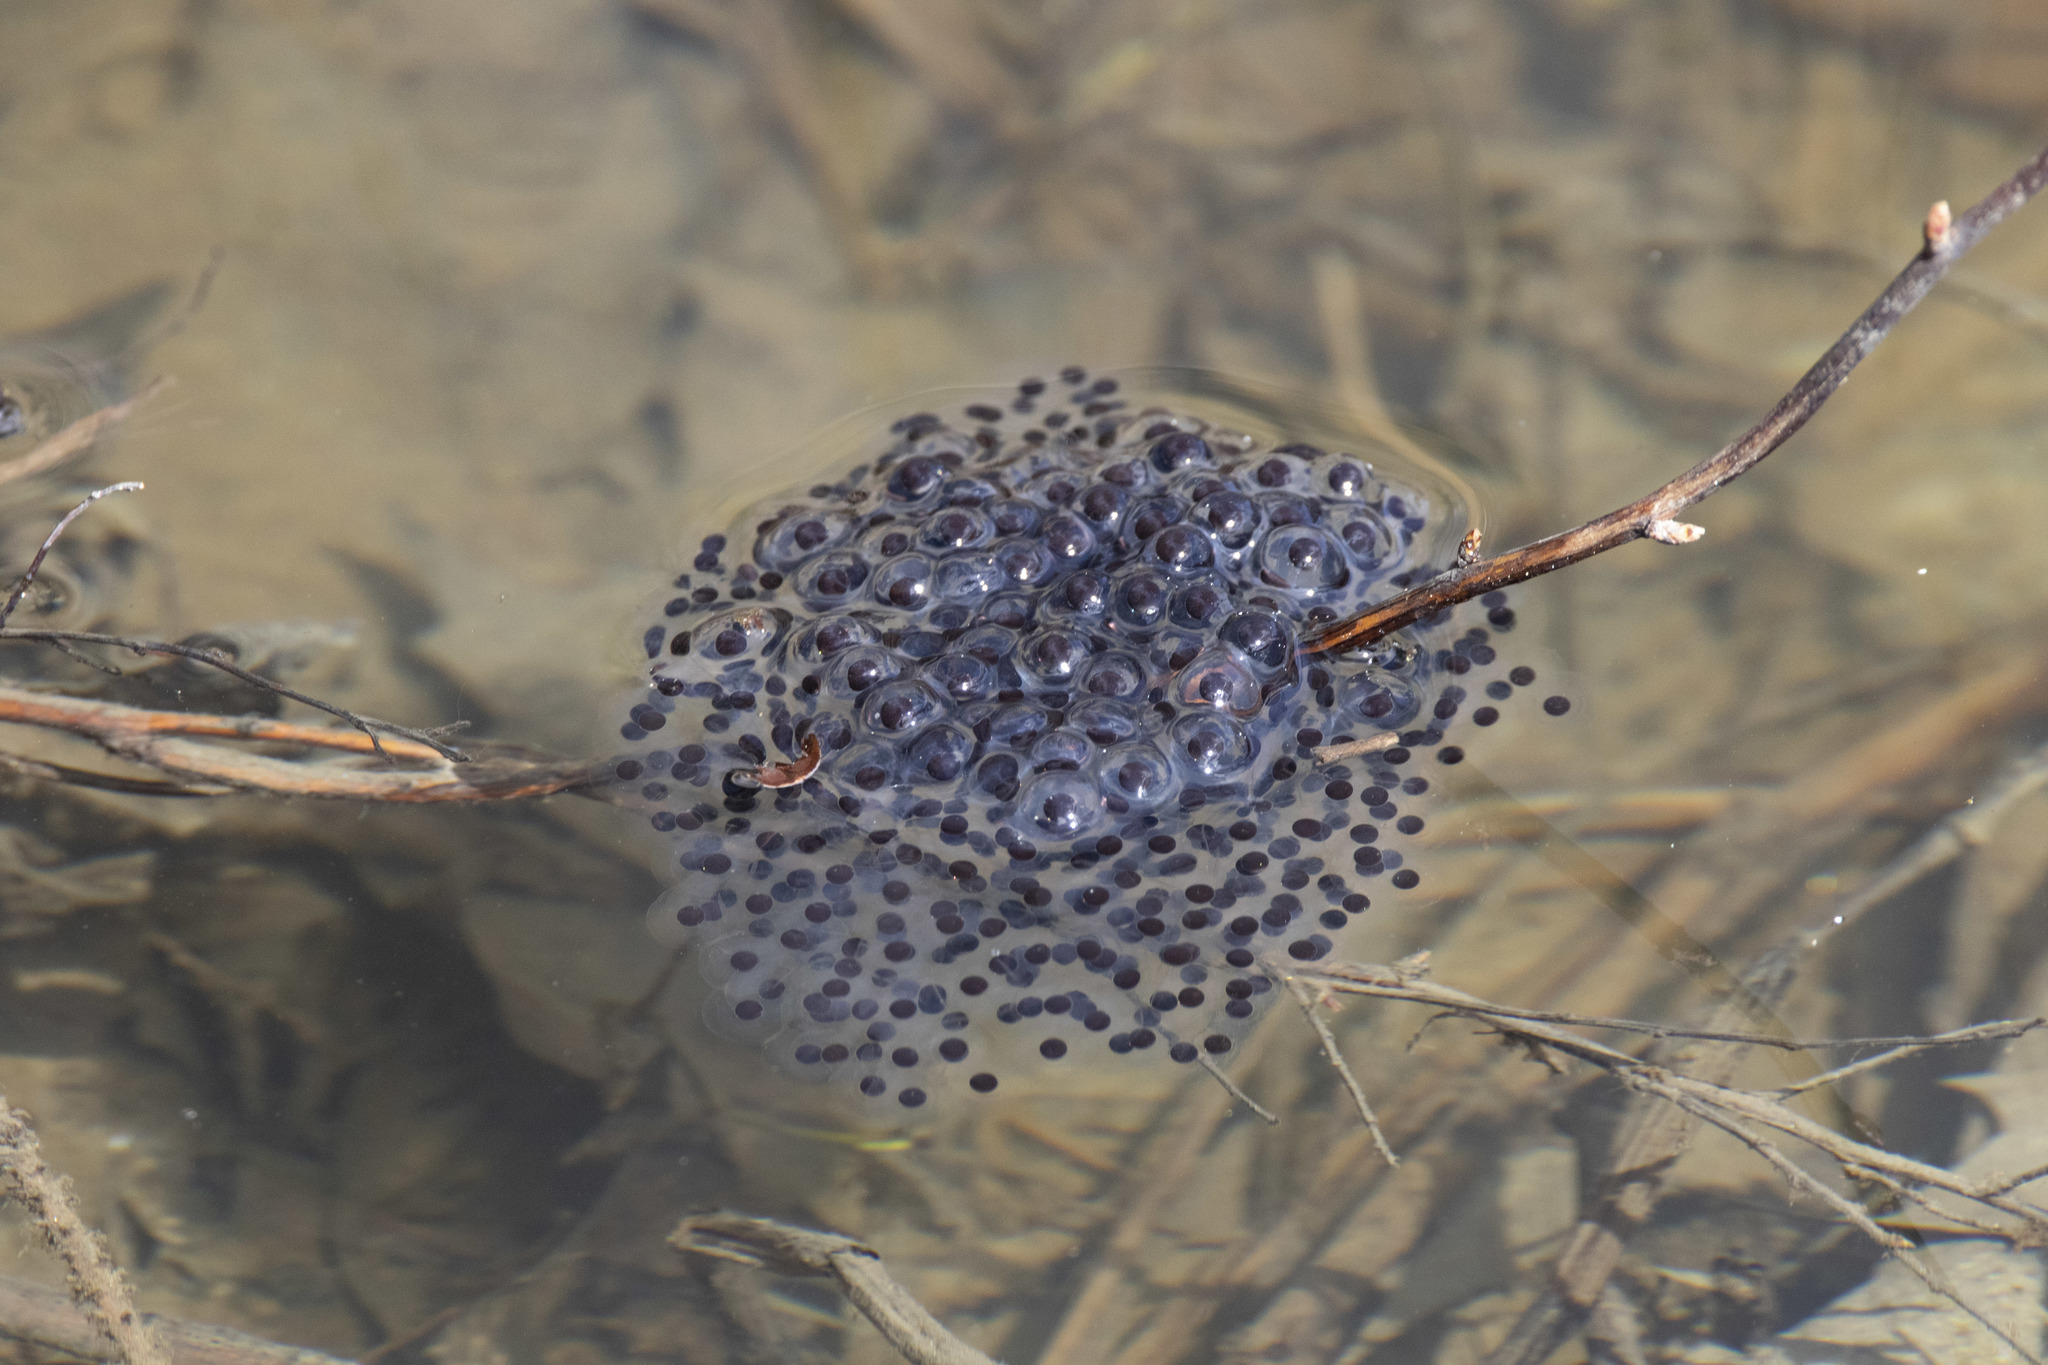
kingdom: Animalia
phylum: Chordata
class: Amphibia
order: Anura
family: Ranidae
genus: Lithobates
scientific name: Lithobates sylvaticus
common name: Wood frog
